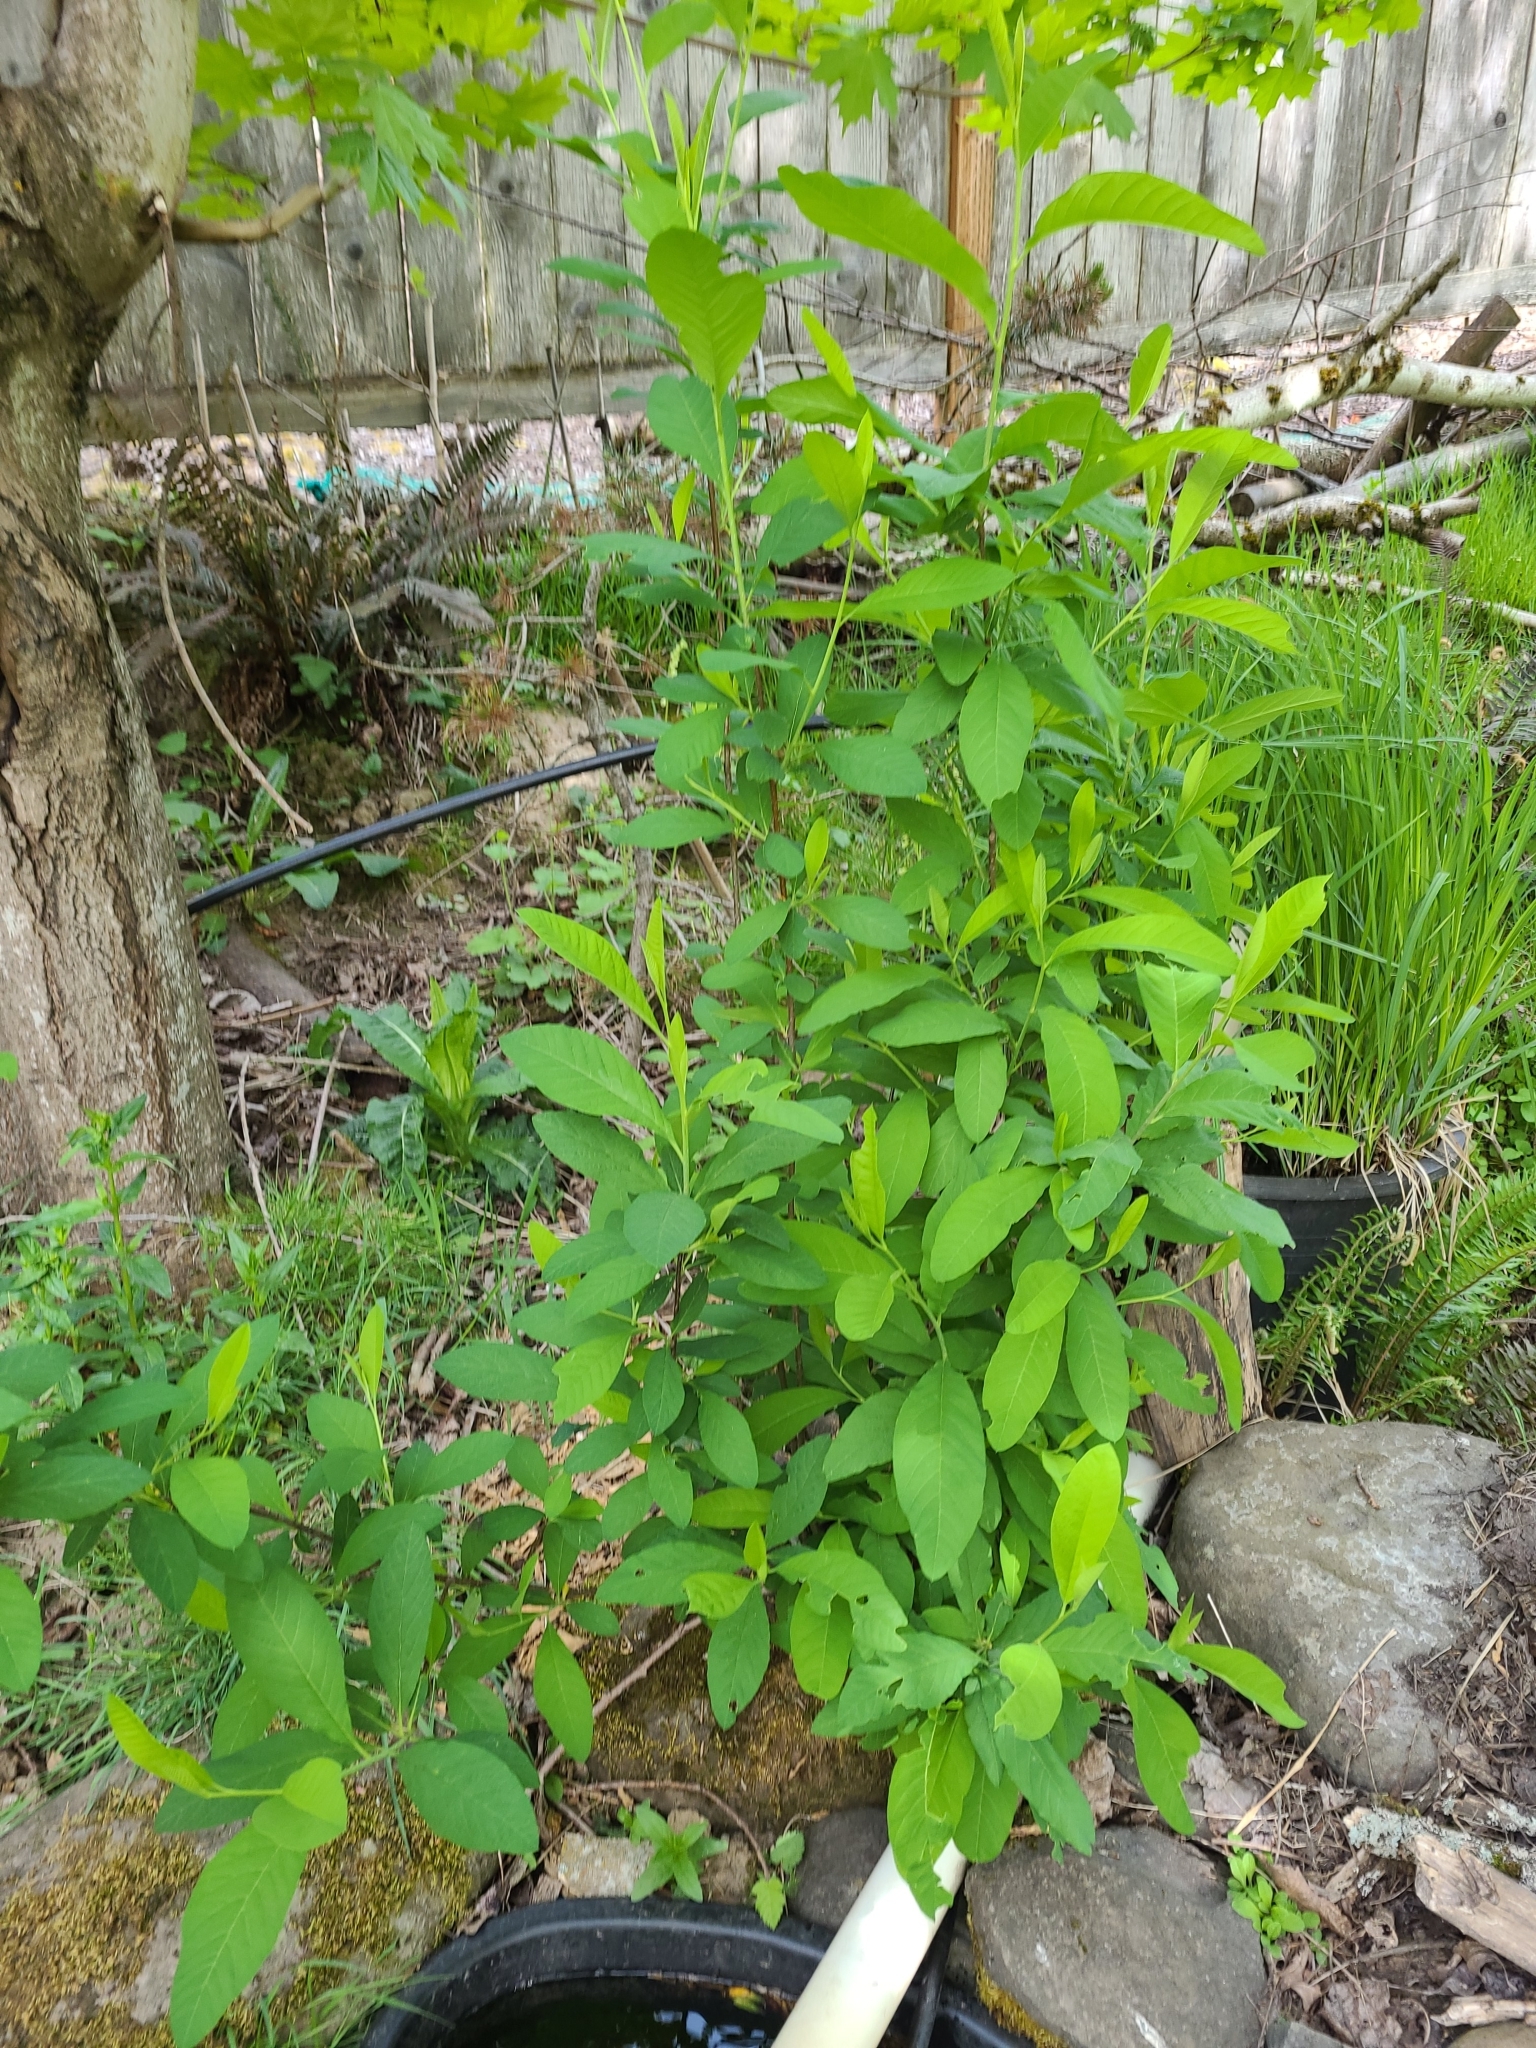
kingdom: Plantae
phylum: Tracheophyta
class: Magnoliopsida
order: Rosales
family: Rosaceae
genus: Oemleria
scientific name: Oemleria cerasiformis
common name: Osoberry
